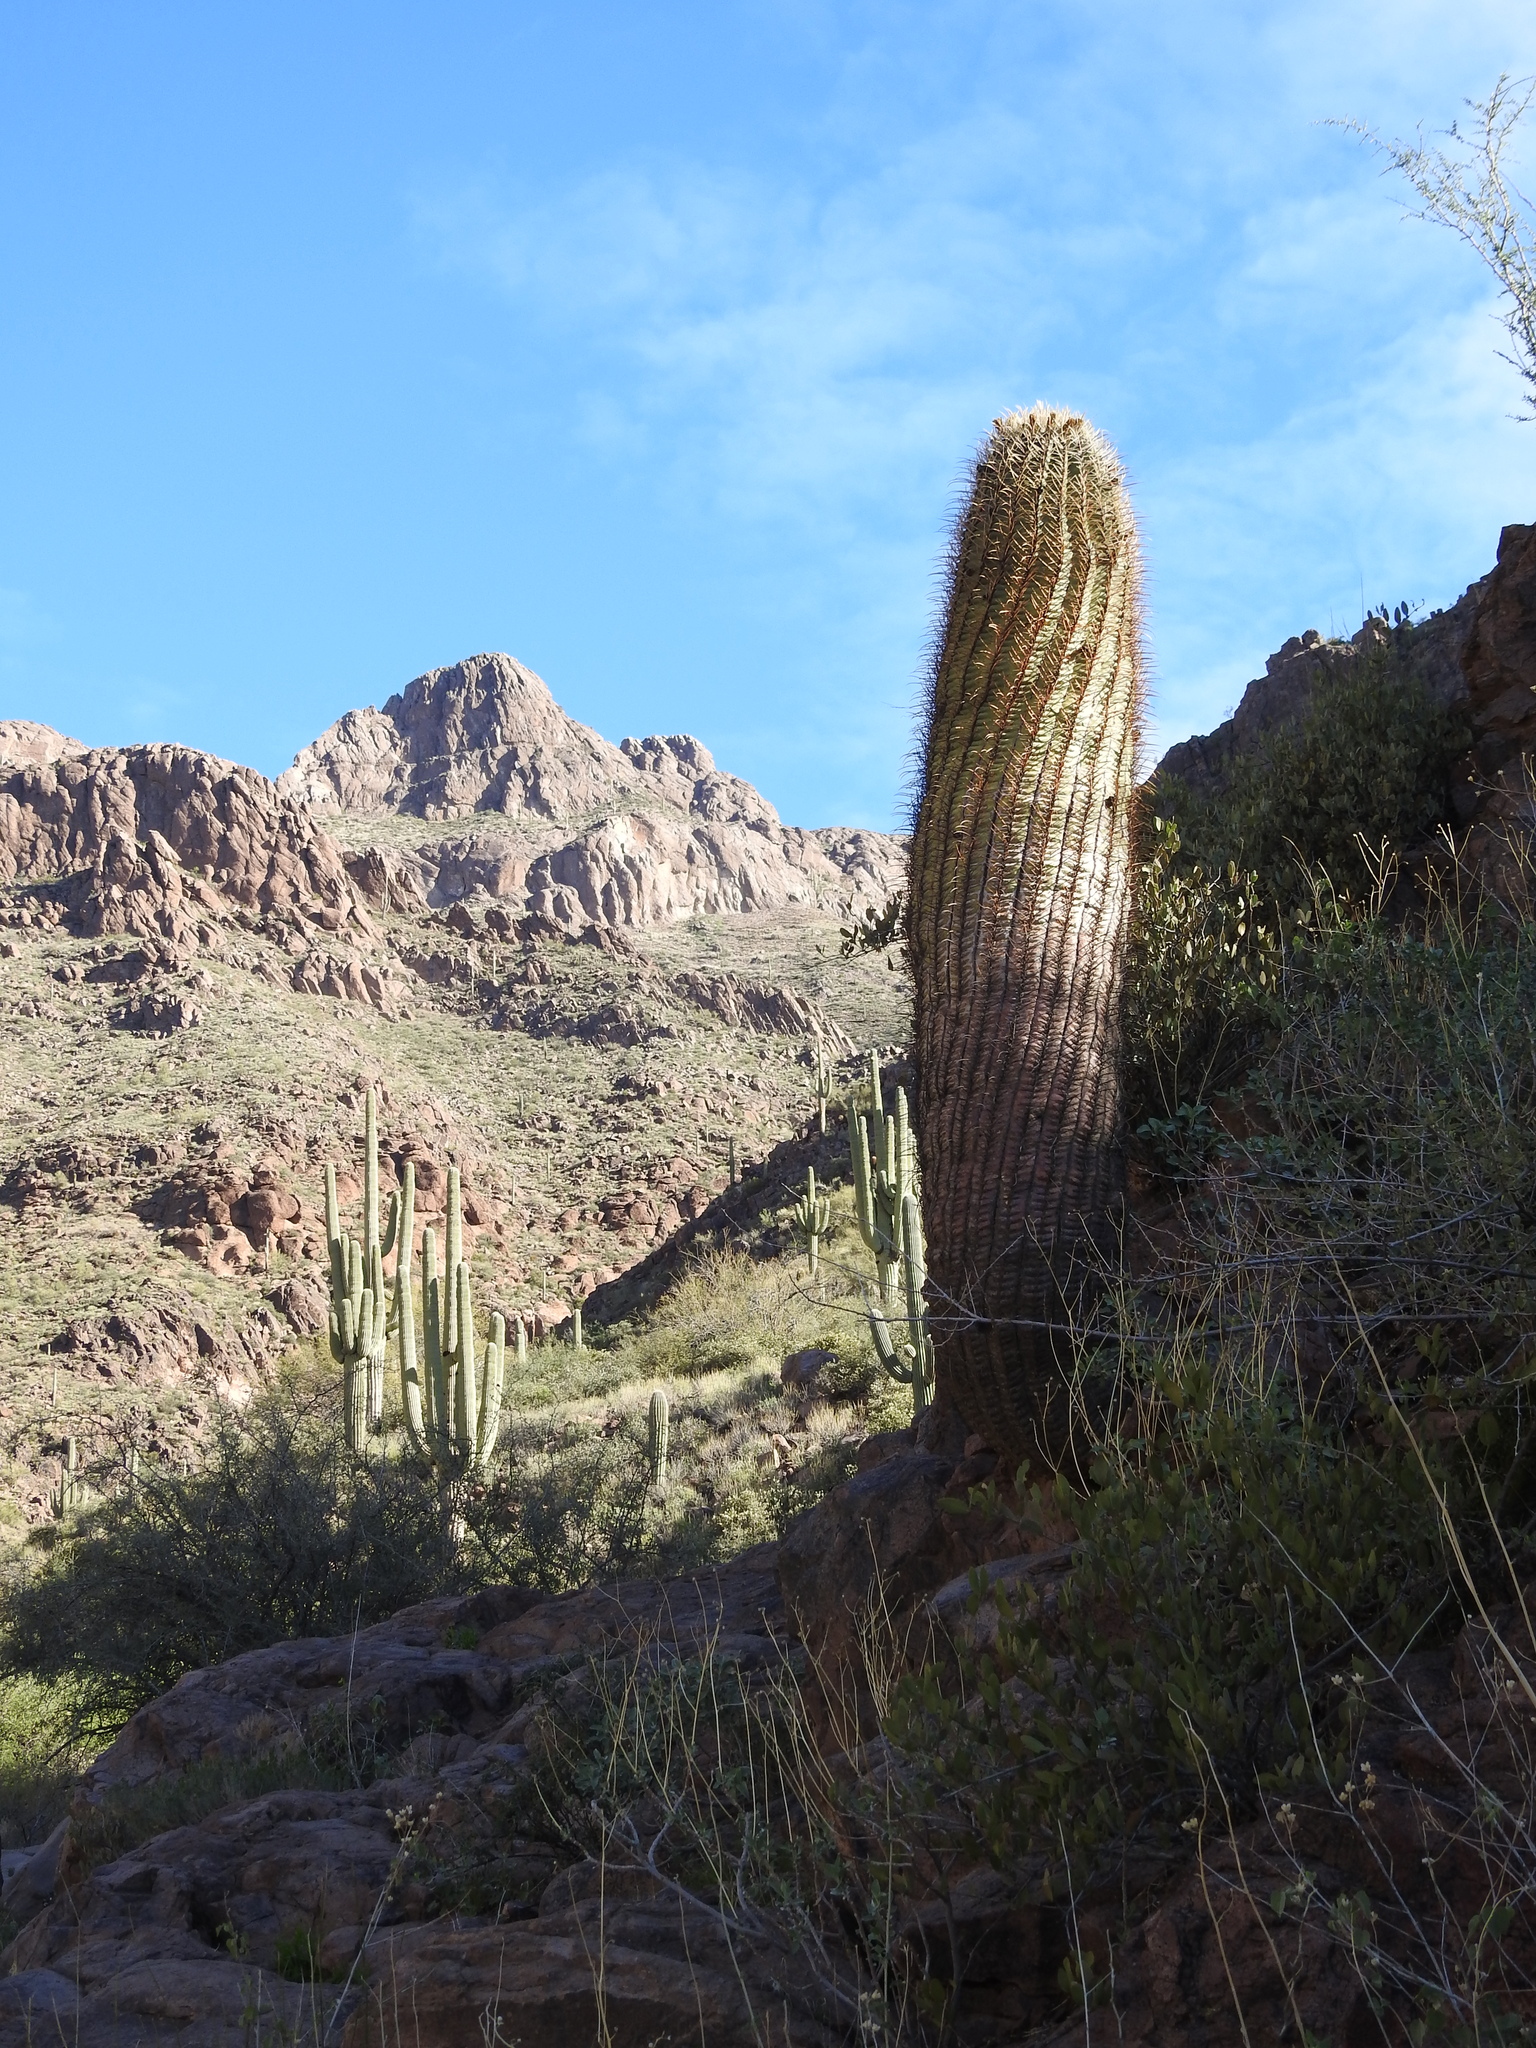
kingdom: Plantae
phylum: Tracheophyta
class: Magnoliopsida
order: Caryophyllales
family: Cactaceae
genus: Ferocactus
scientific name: Ferocactus cylindraceus
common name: California barrel cactus
